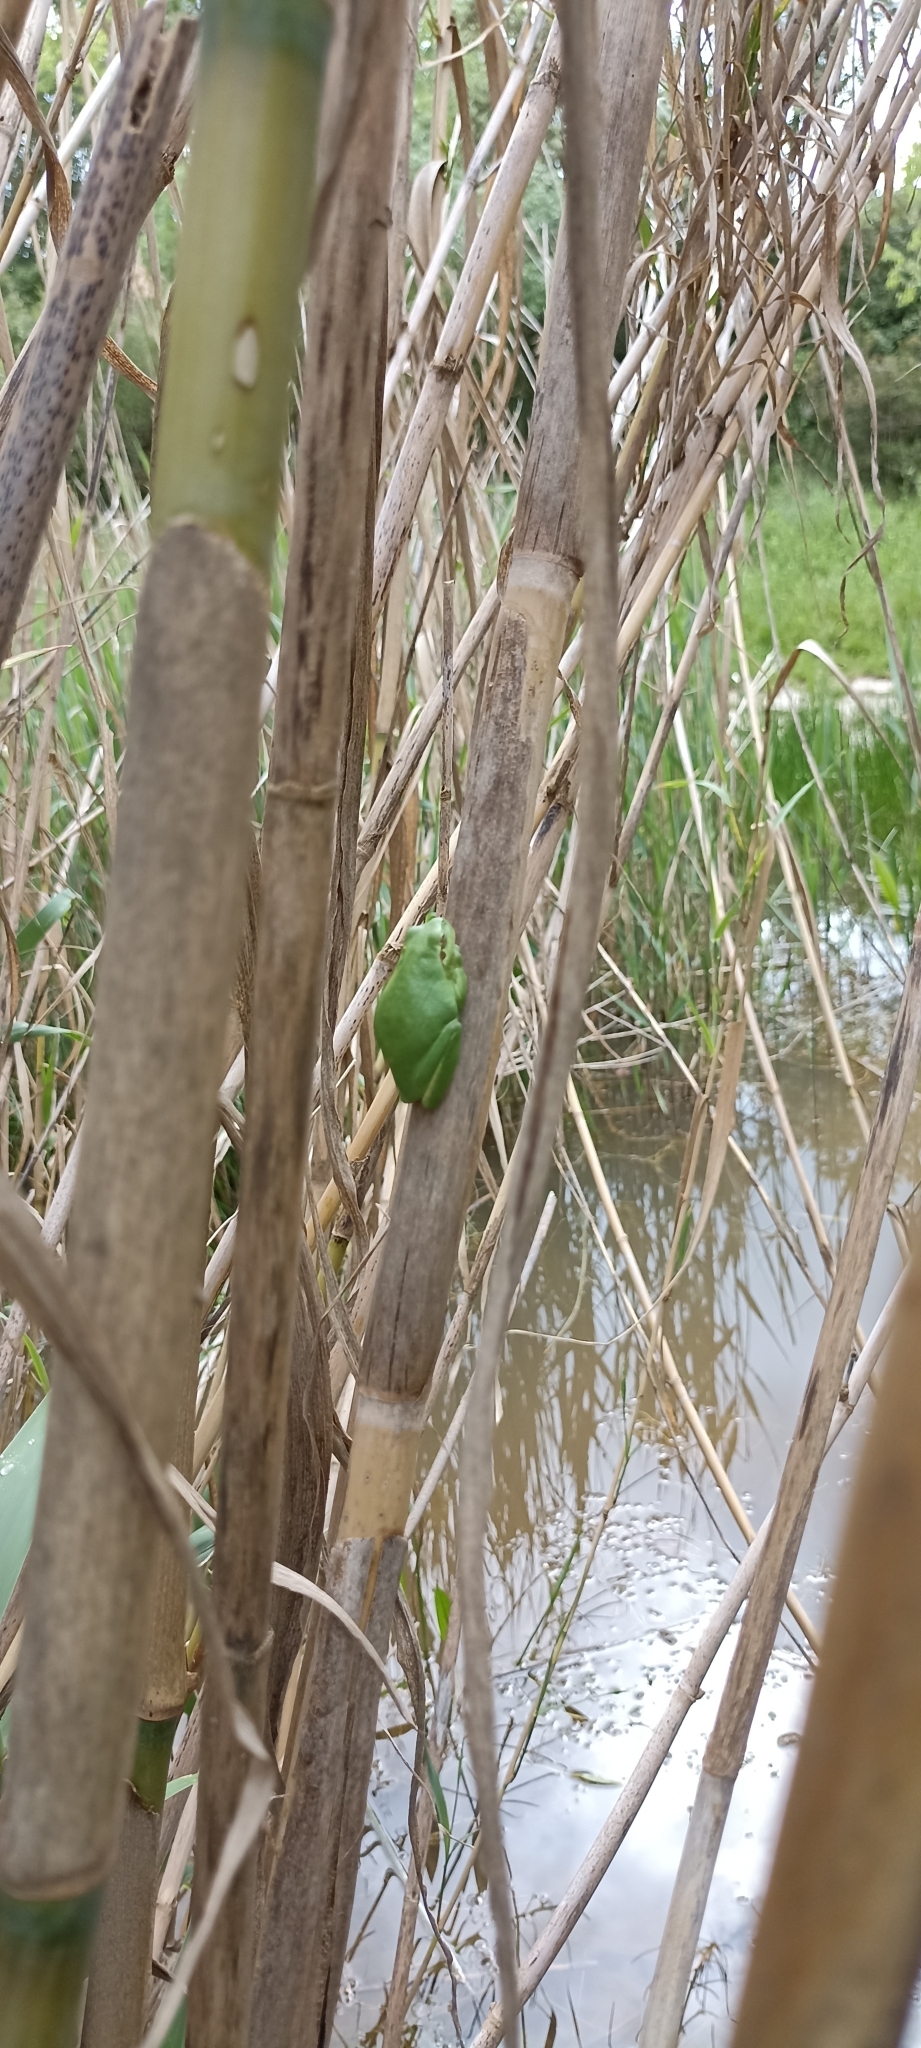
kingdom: Animalia
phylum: Chordata
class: Amphibia
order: Anura
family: Hylidae
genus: Hyla
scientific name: Hyla meridionalis
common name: Stripeless tree frog
